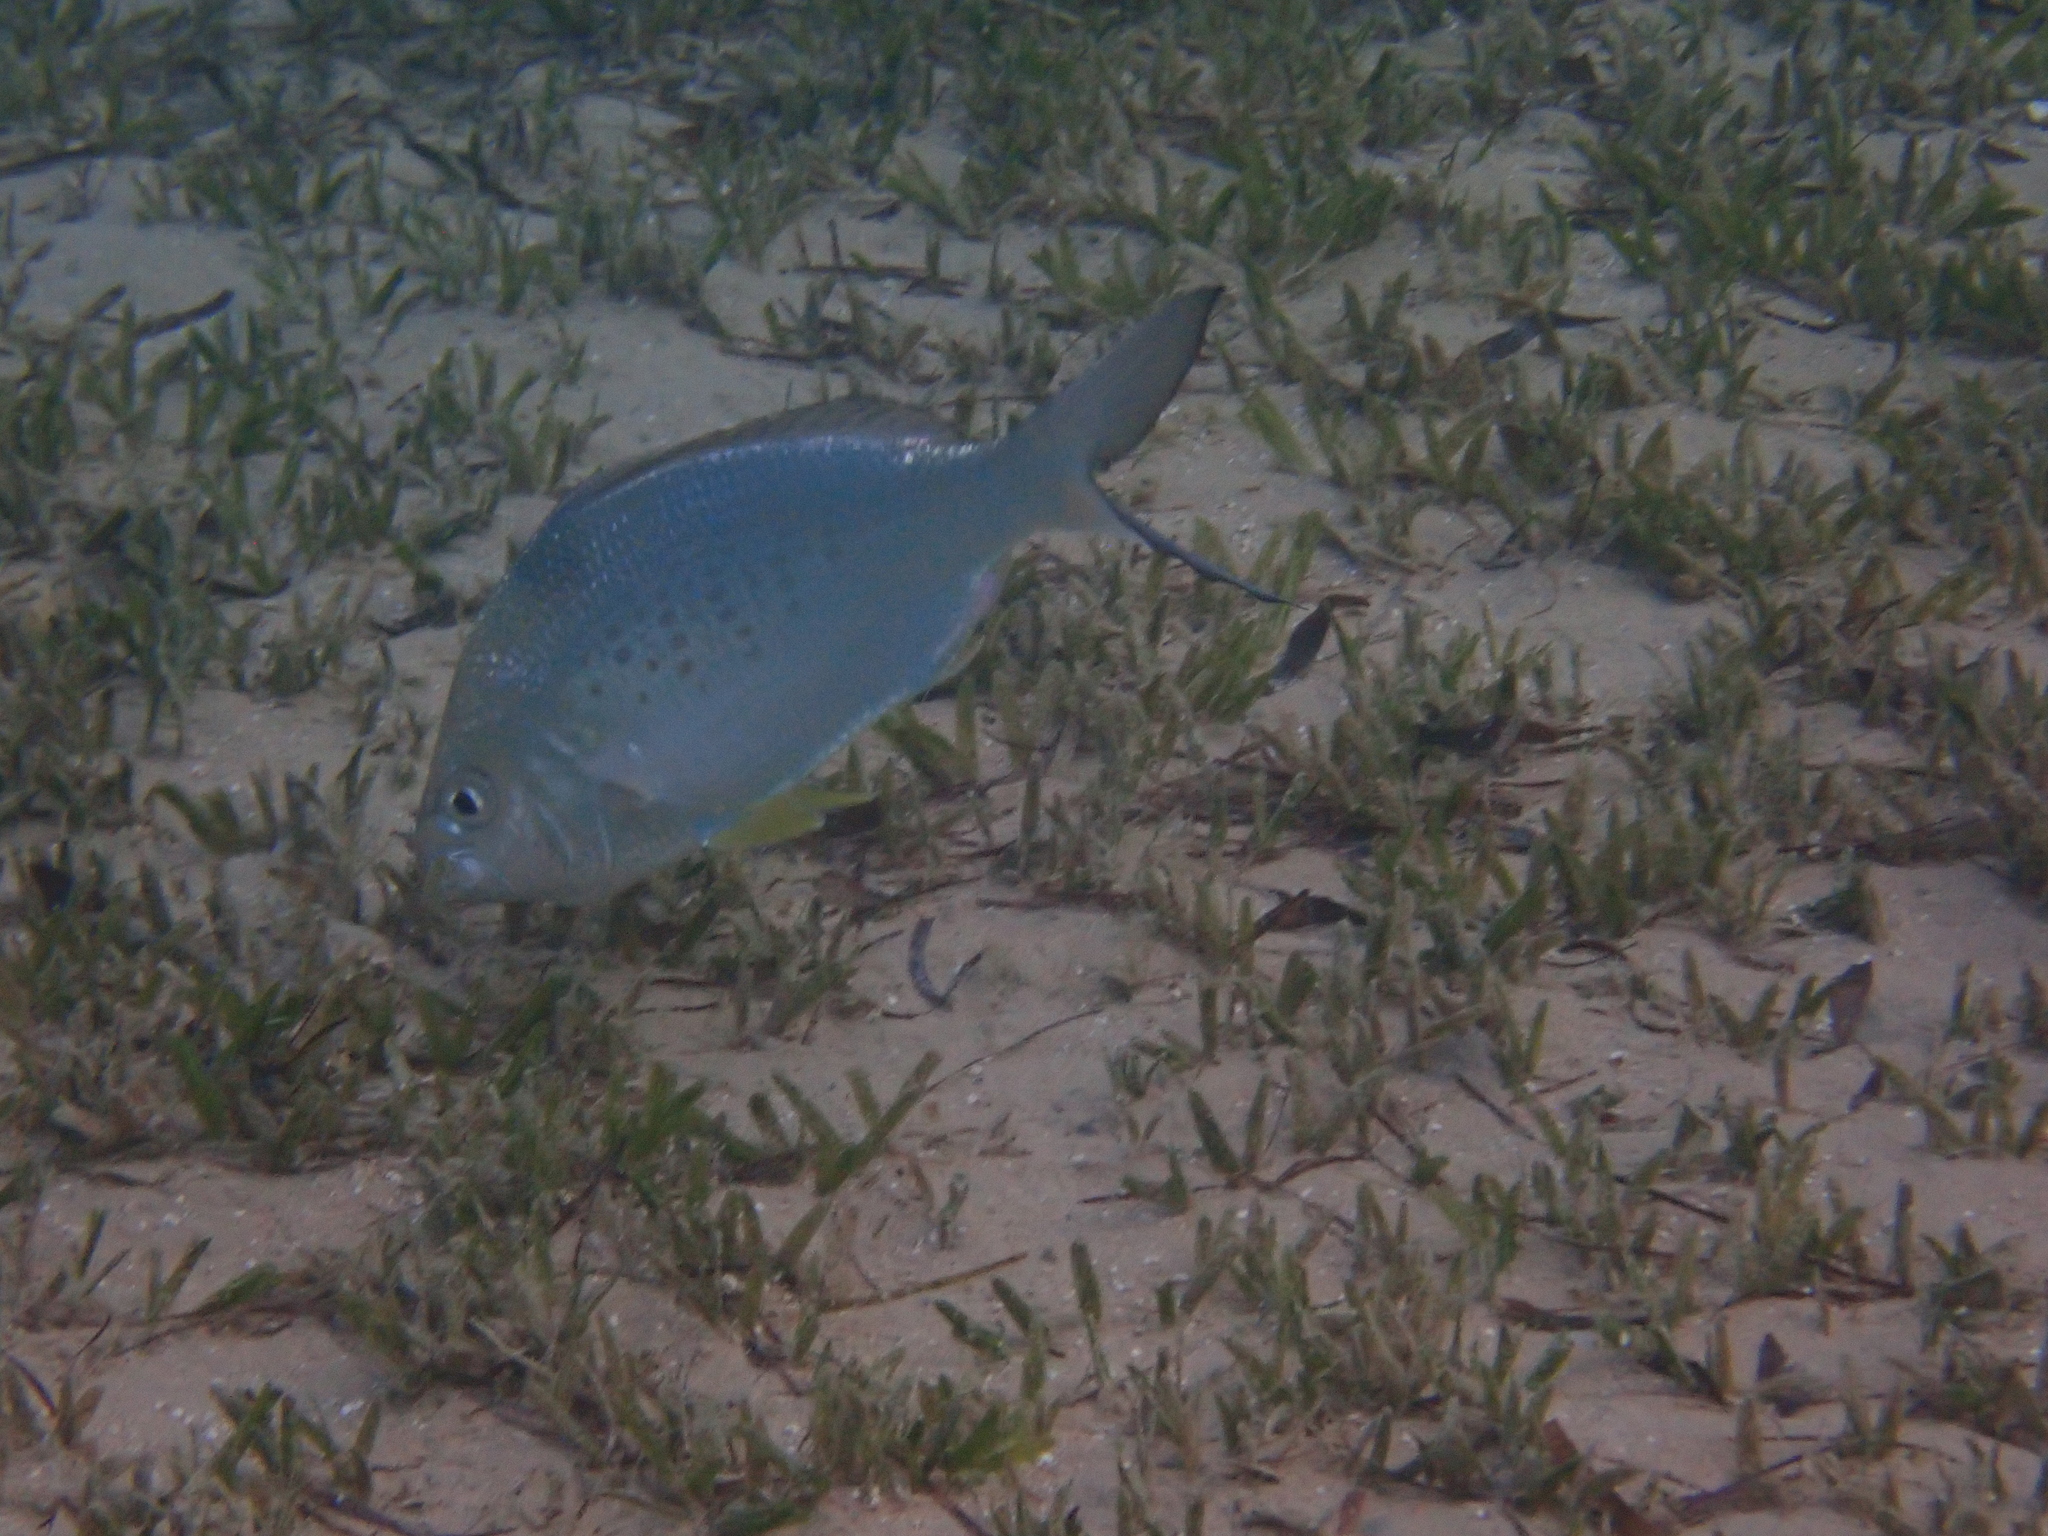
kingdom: Animalia
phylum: Chordata
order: Perciformes
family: Gerreidae
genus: Gerres
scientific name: Gerres longirostris
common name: Strongspine silver-biddy
